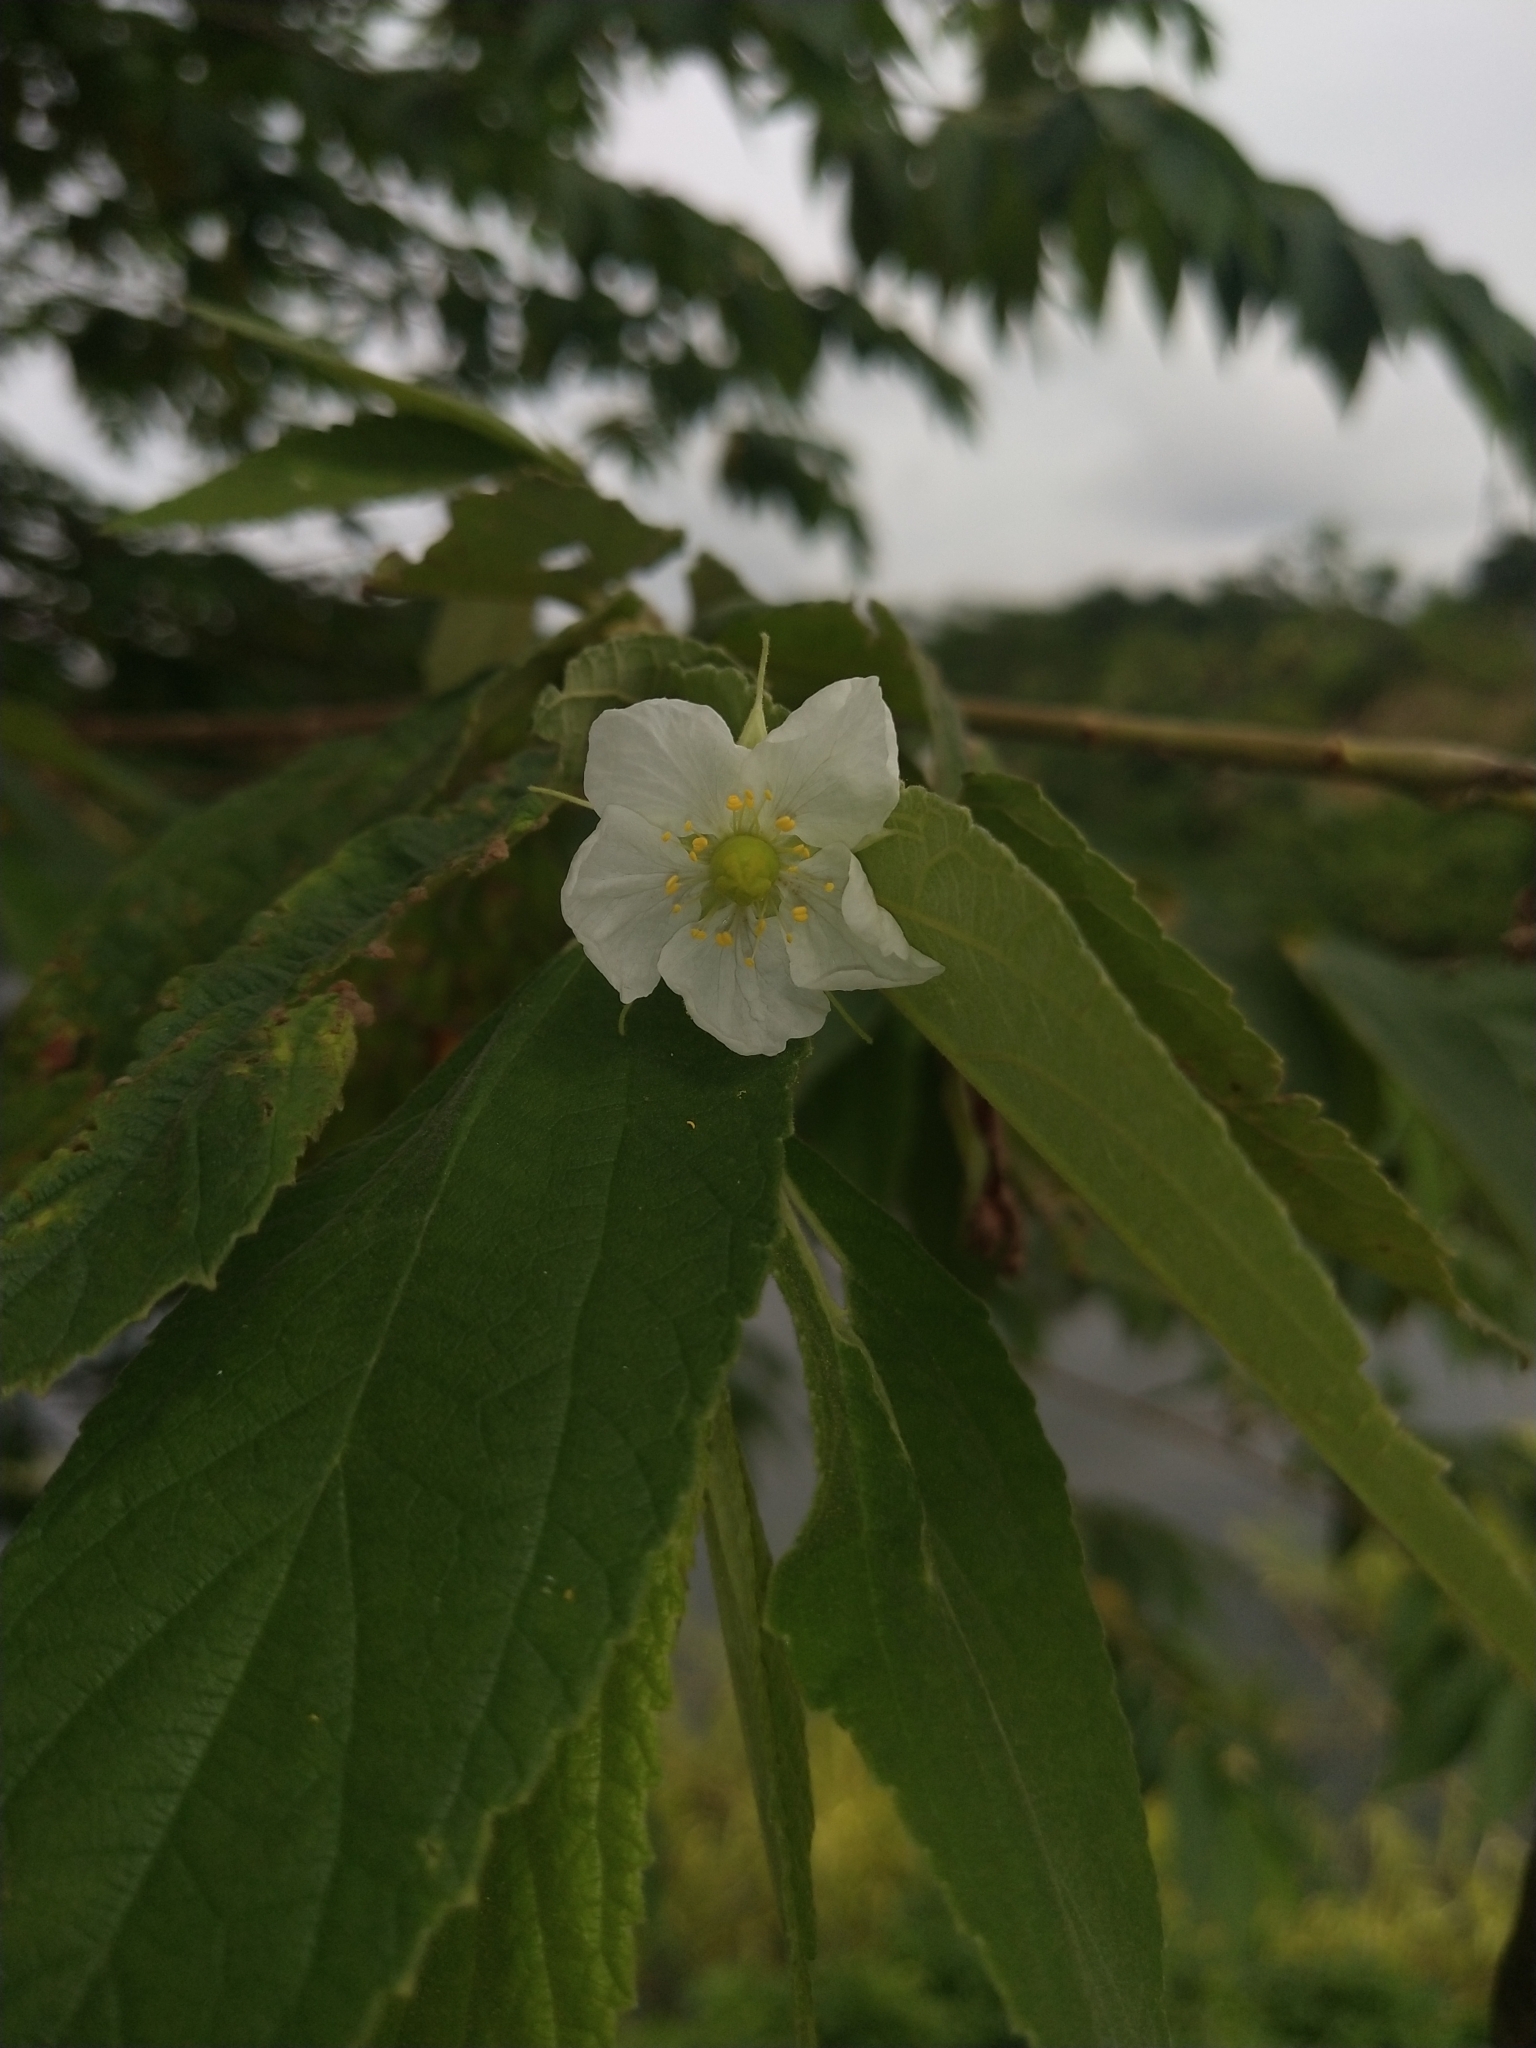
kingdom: Plantae
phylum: Tracheophyta
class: Magnoliopsida
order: Malvales
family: Muntingiaceae
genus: Muntingia
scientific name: Muntingia calabura
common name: Strawberrytree
